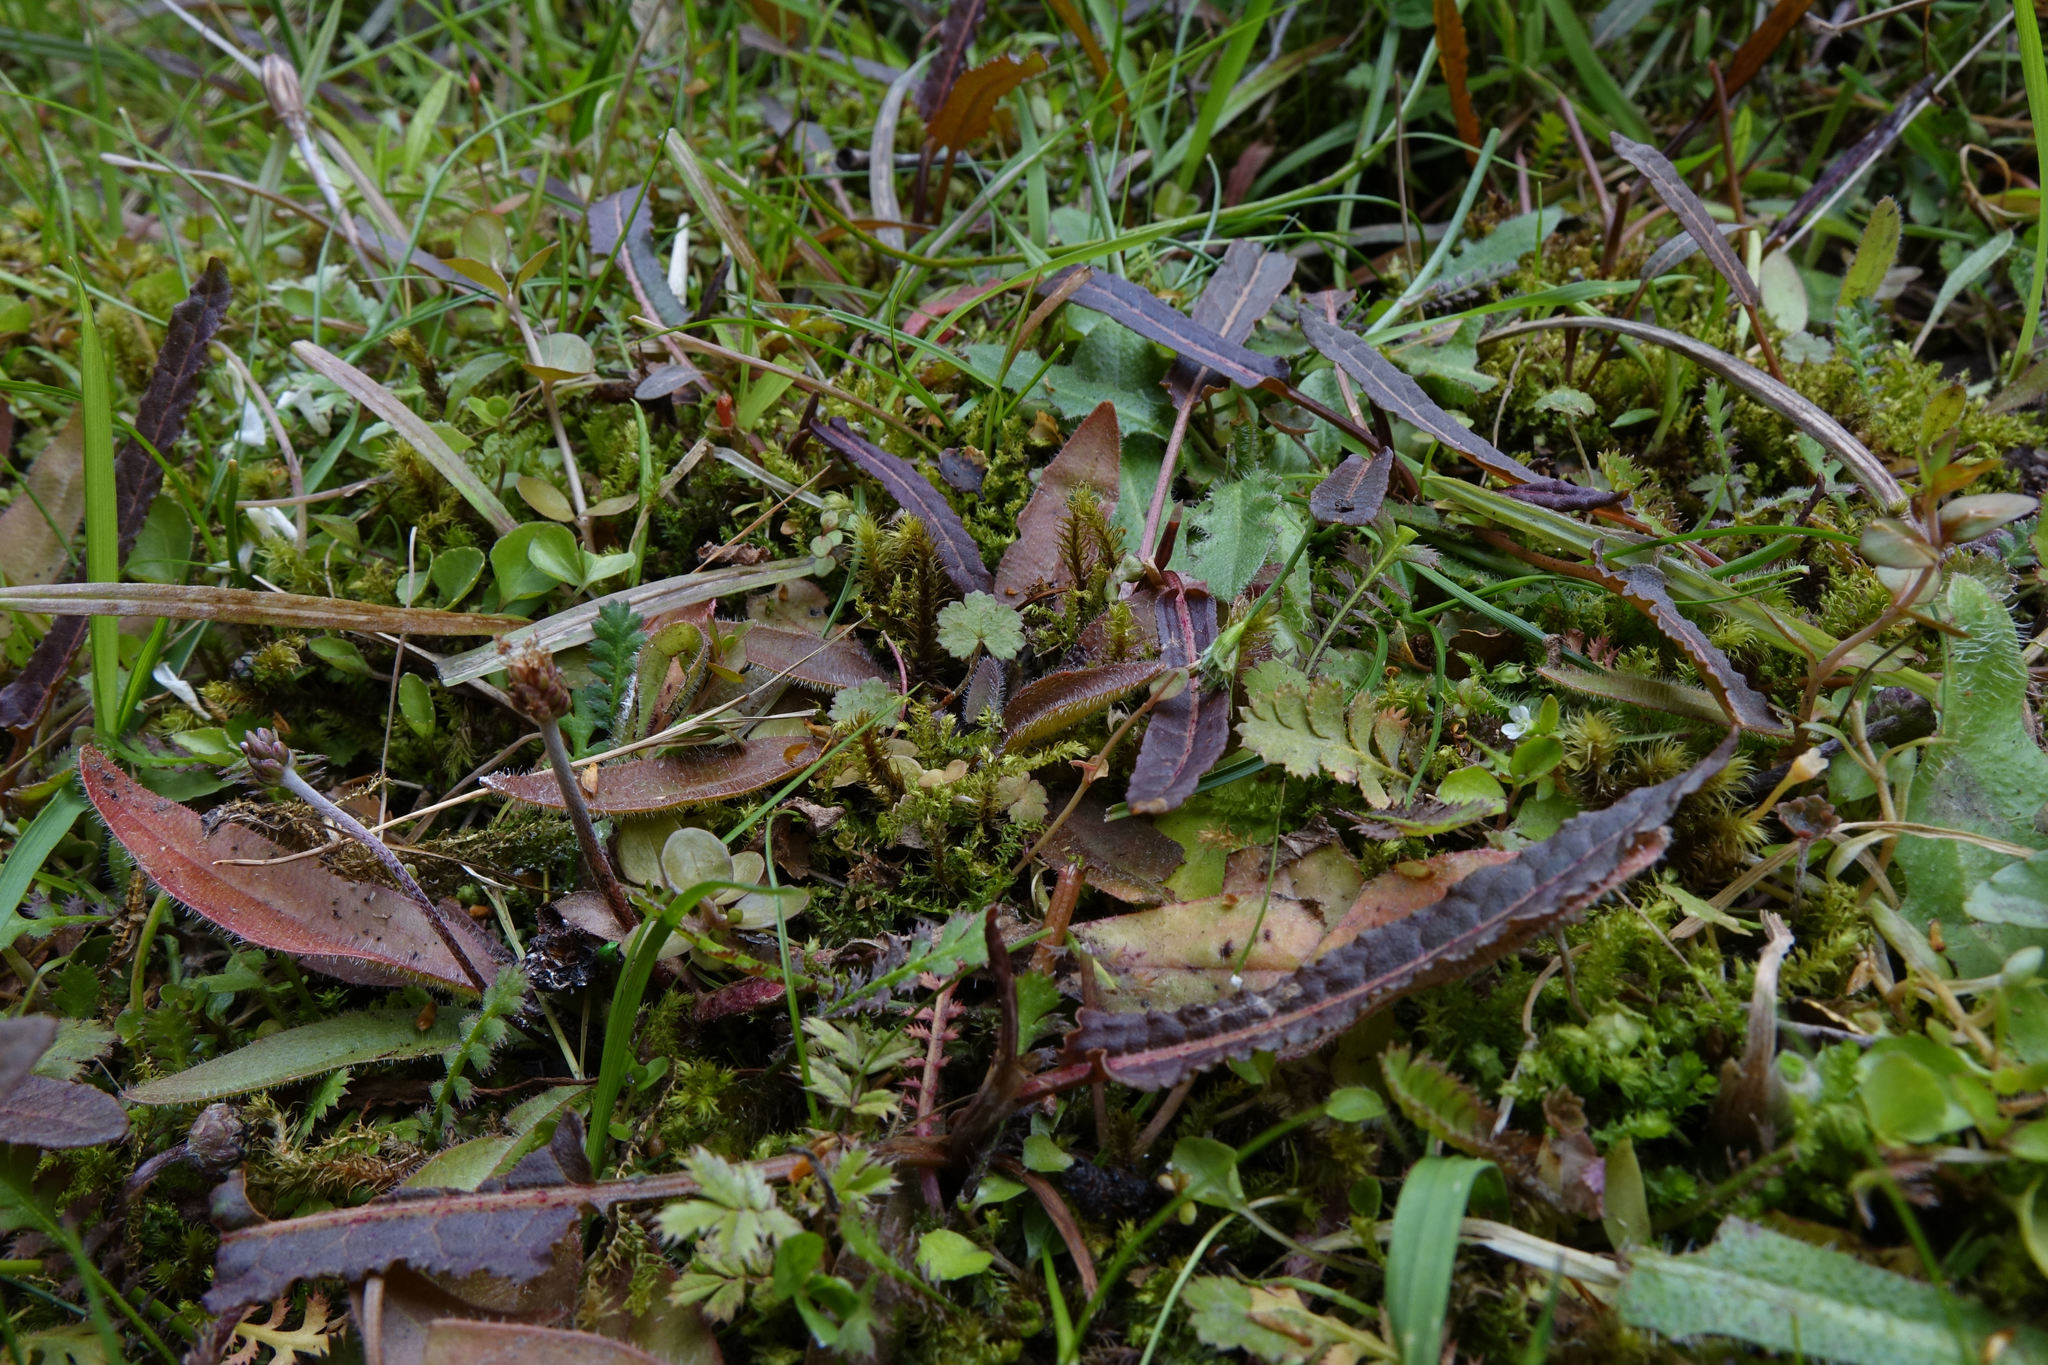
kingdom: Plantae
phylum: Tracheophyta
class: Magnoliopsida
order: Caryophyllales
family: Polygonaceae
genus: Rumex
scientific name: Rumex flexuosus
